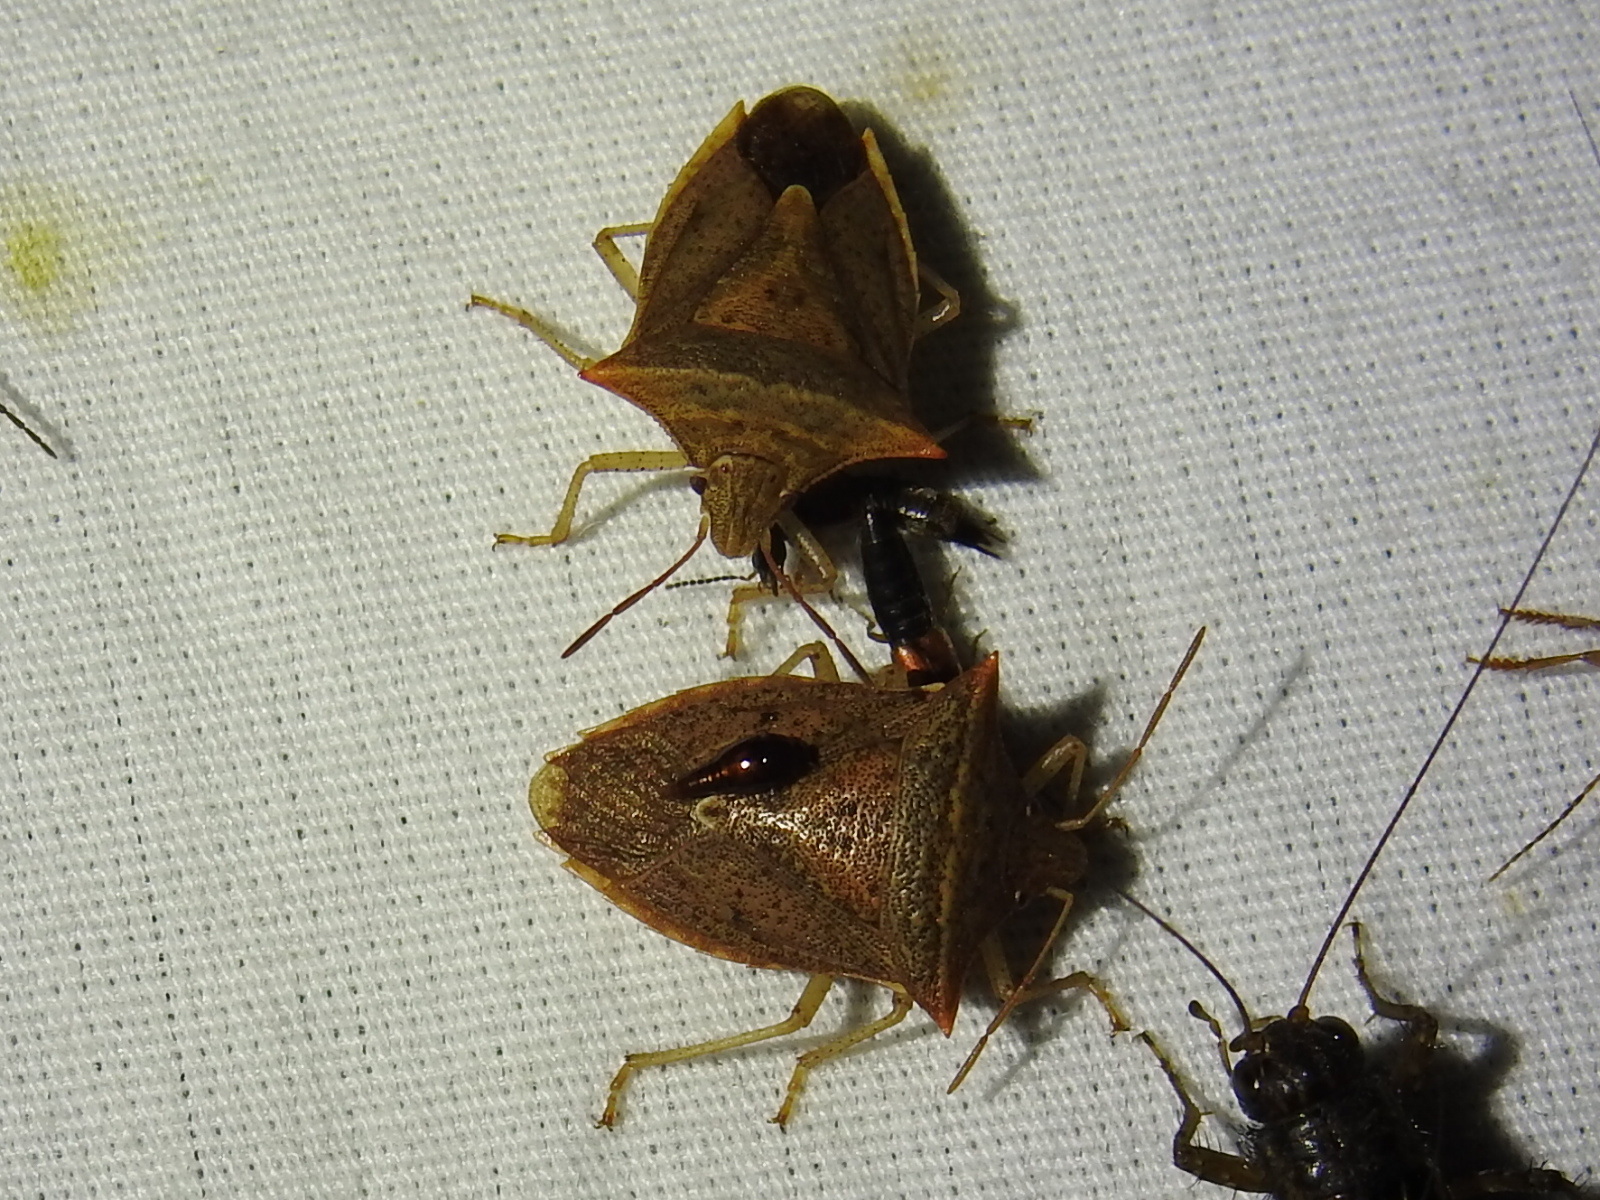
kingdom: Animalia
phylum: Arthropoda
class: Insecta
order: Hemiptera
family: Pentatomidae
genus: Euschistus
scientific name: Euschistus ictericus
